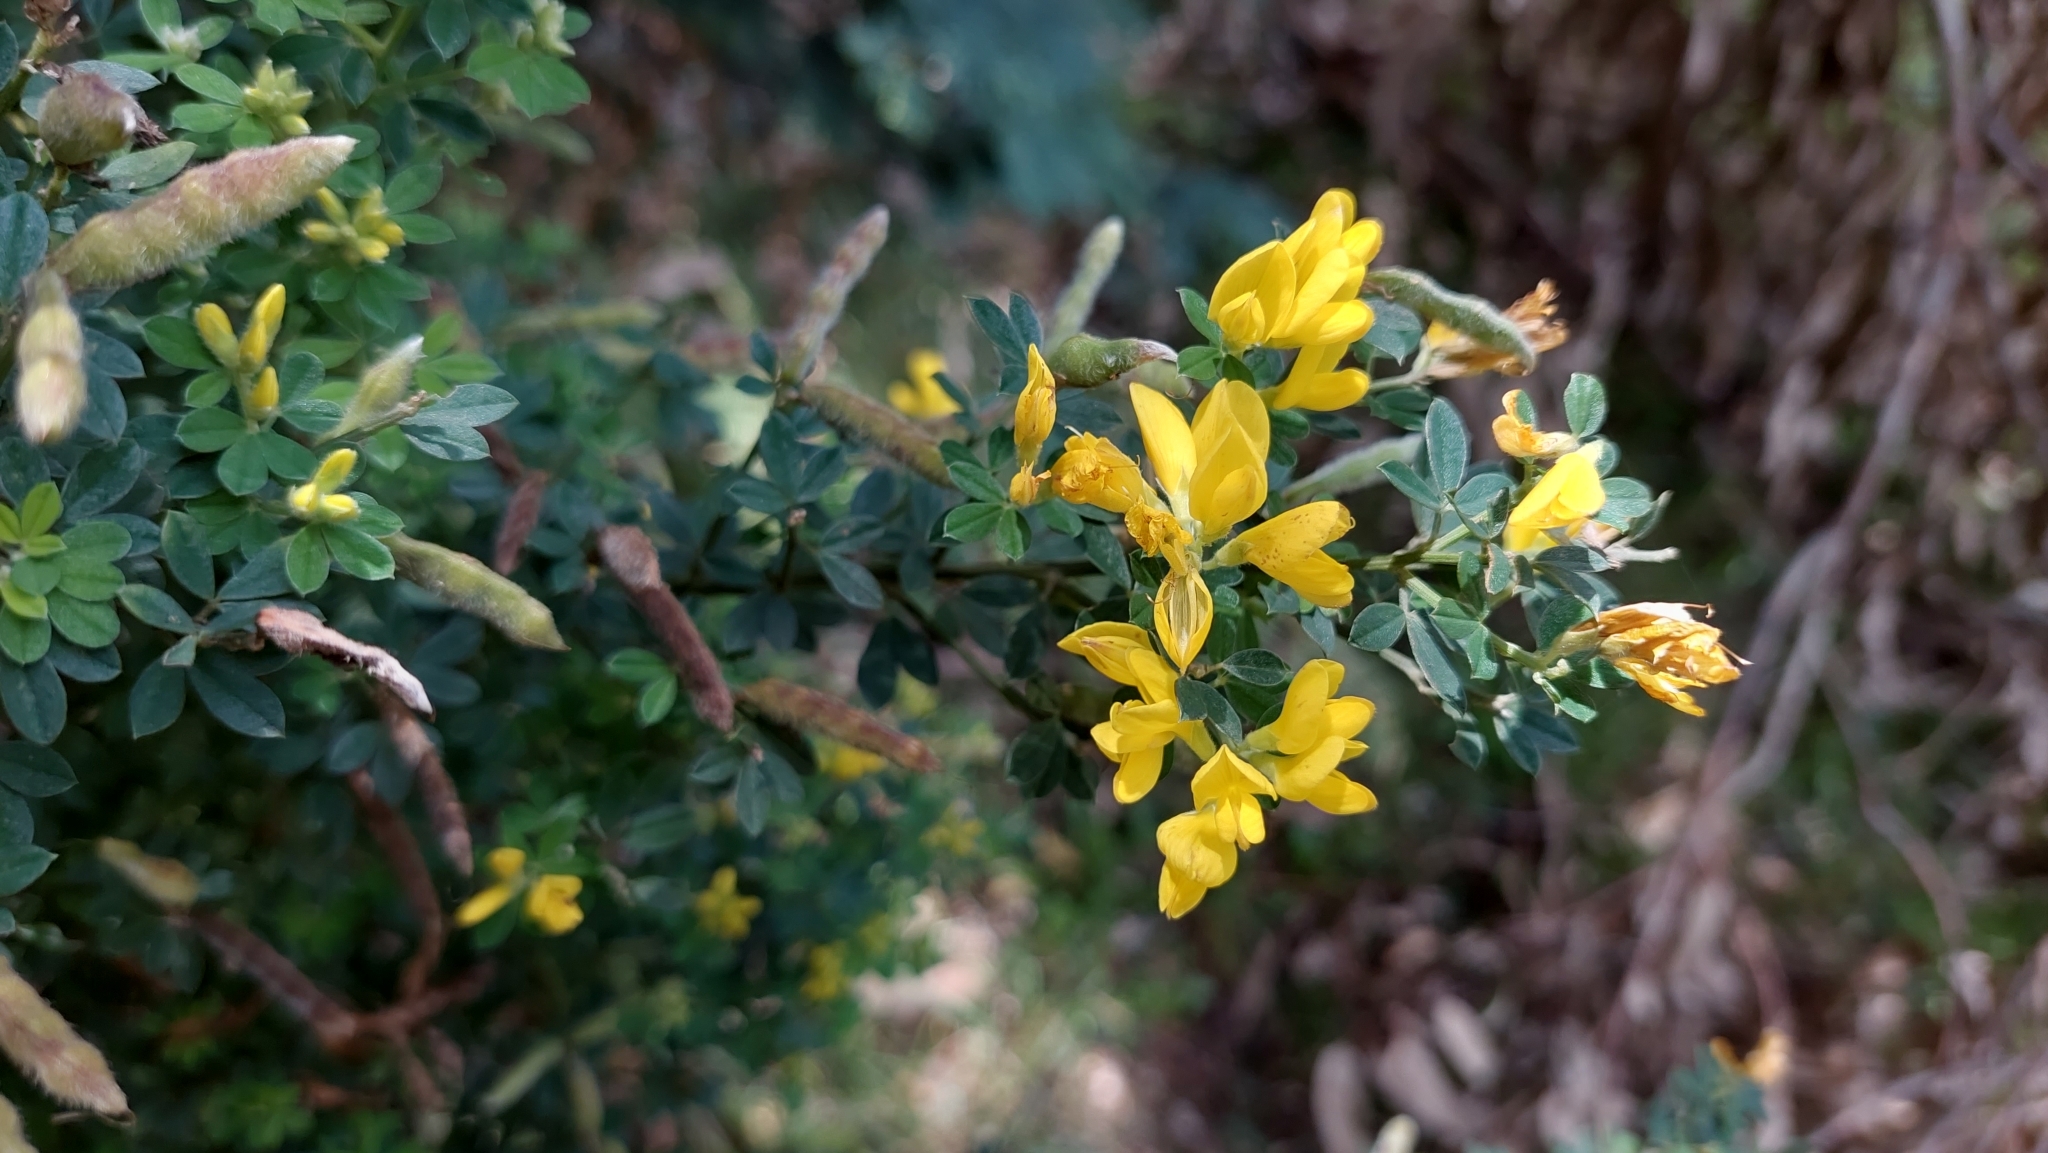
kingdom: Plantae
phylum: Tracheophyta
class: Magnoliopsida
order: Fabales
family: Fabaceae
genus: Genista
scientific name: Genista monspessulana
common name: Montpellier broom
